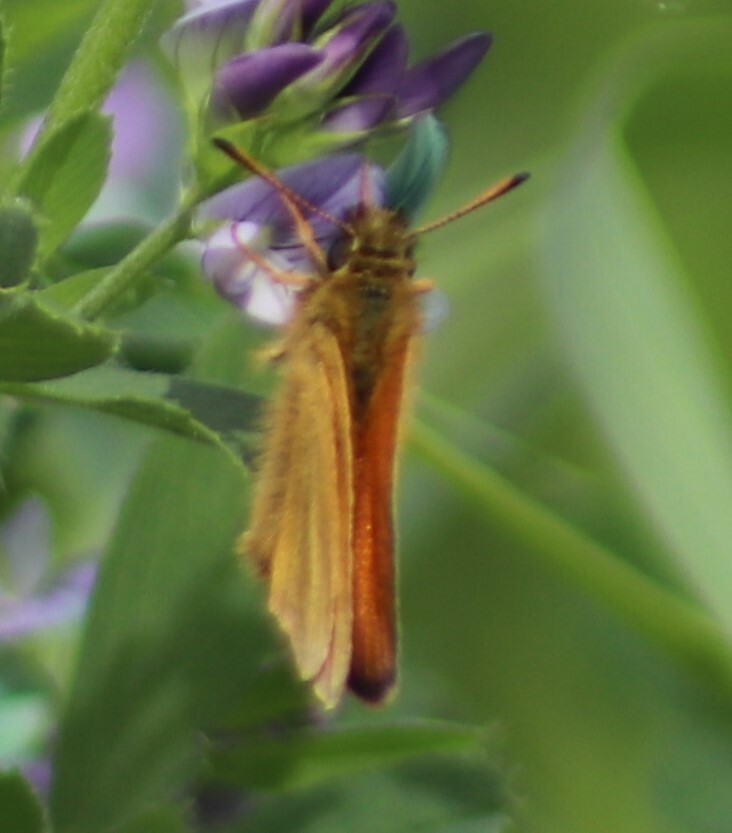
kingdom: Animalia
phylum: Arthropoda
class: Insecta
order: Lepidoptera
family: Hesperiidae
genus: Thymelicus
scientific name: Thymelicus lineola
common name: Essex skipper
